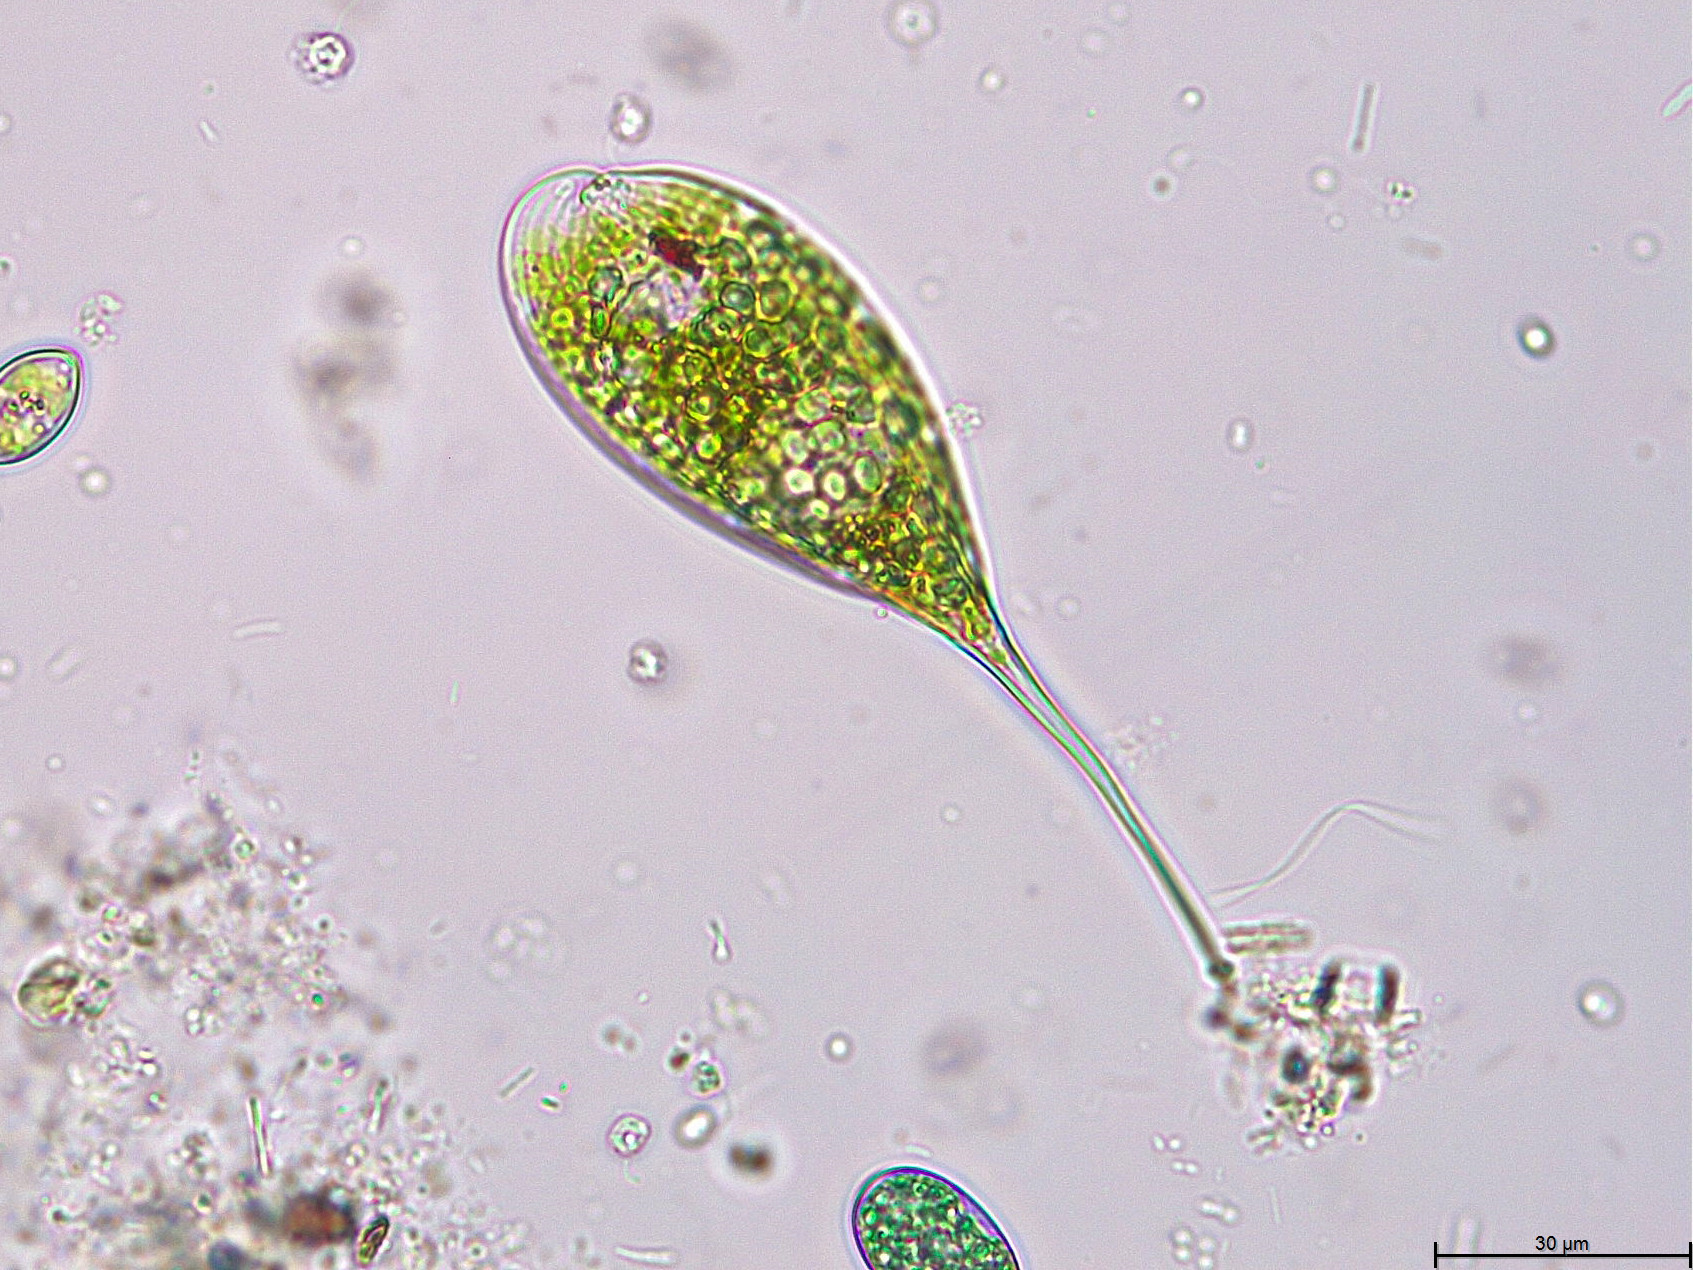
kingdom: Protozoa
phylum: Euglenozoa
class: Euglenoidea
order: Euglenida
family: Phacidae
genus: Phacus
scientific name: Phacus elegans
